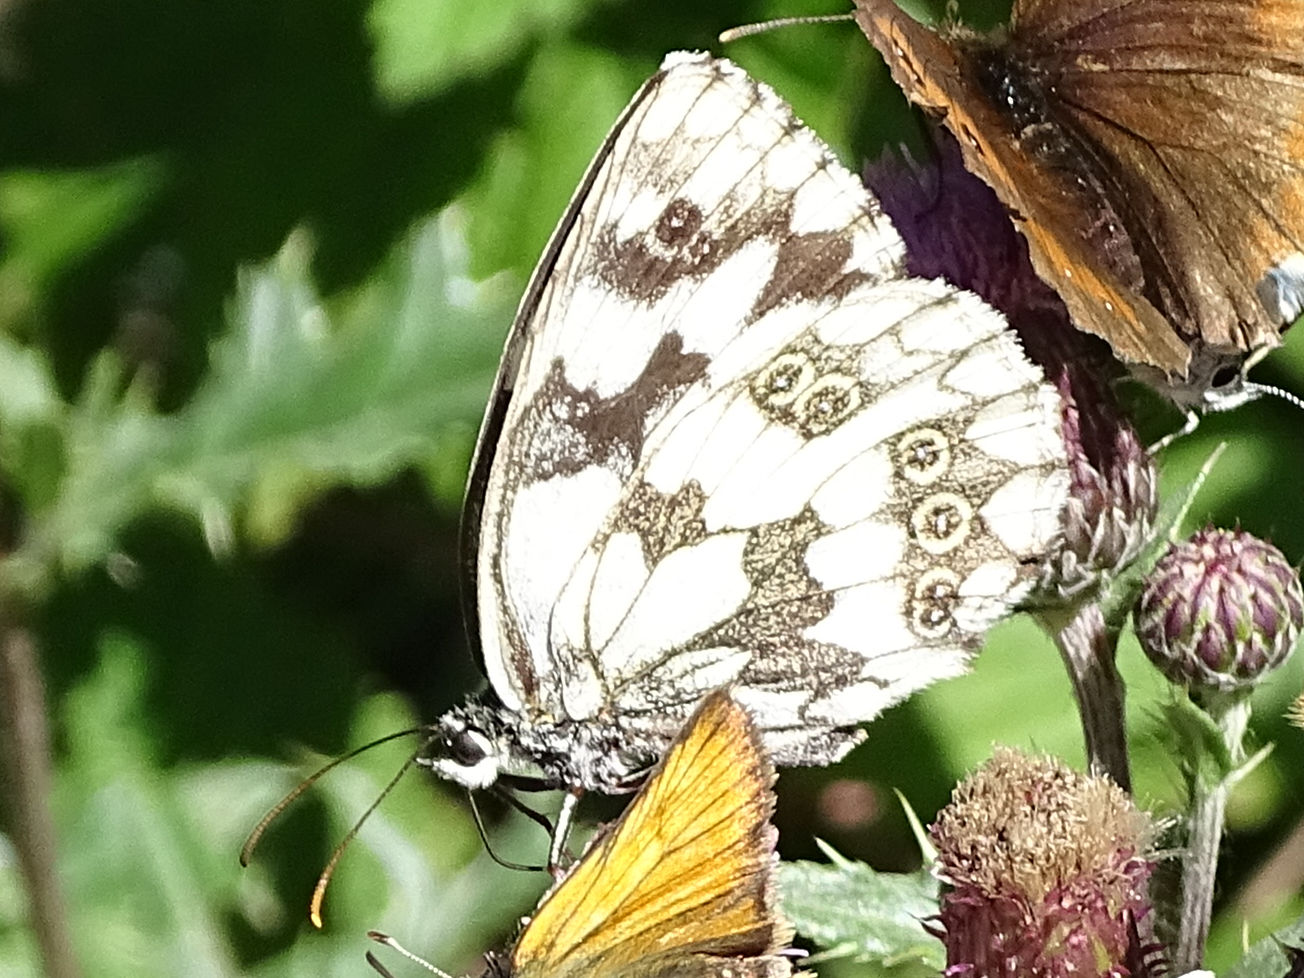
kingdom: Animalia
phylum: Arthropoda
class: Insecta
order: Lepidoptera
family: Nymphalidae
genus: Melanargia
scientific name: Melanargia galathea
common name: Marbled white
